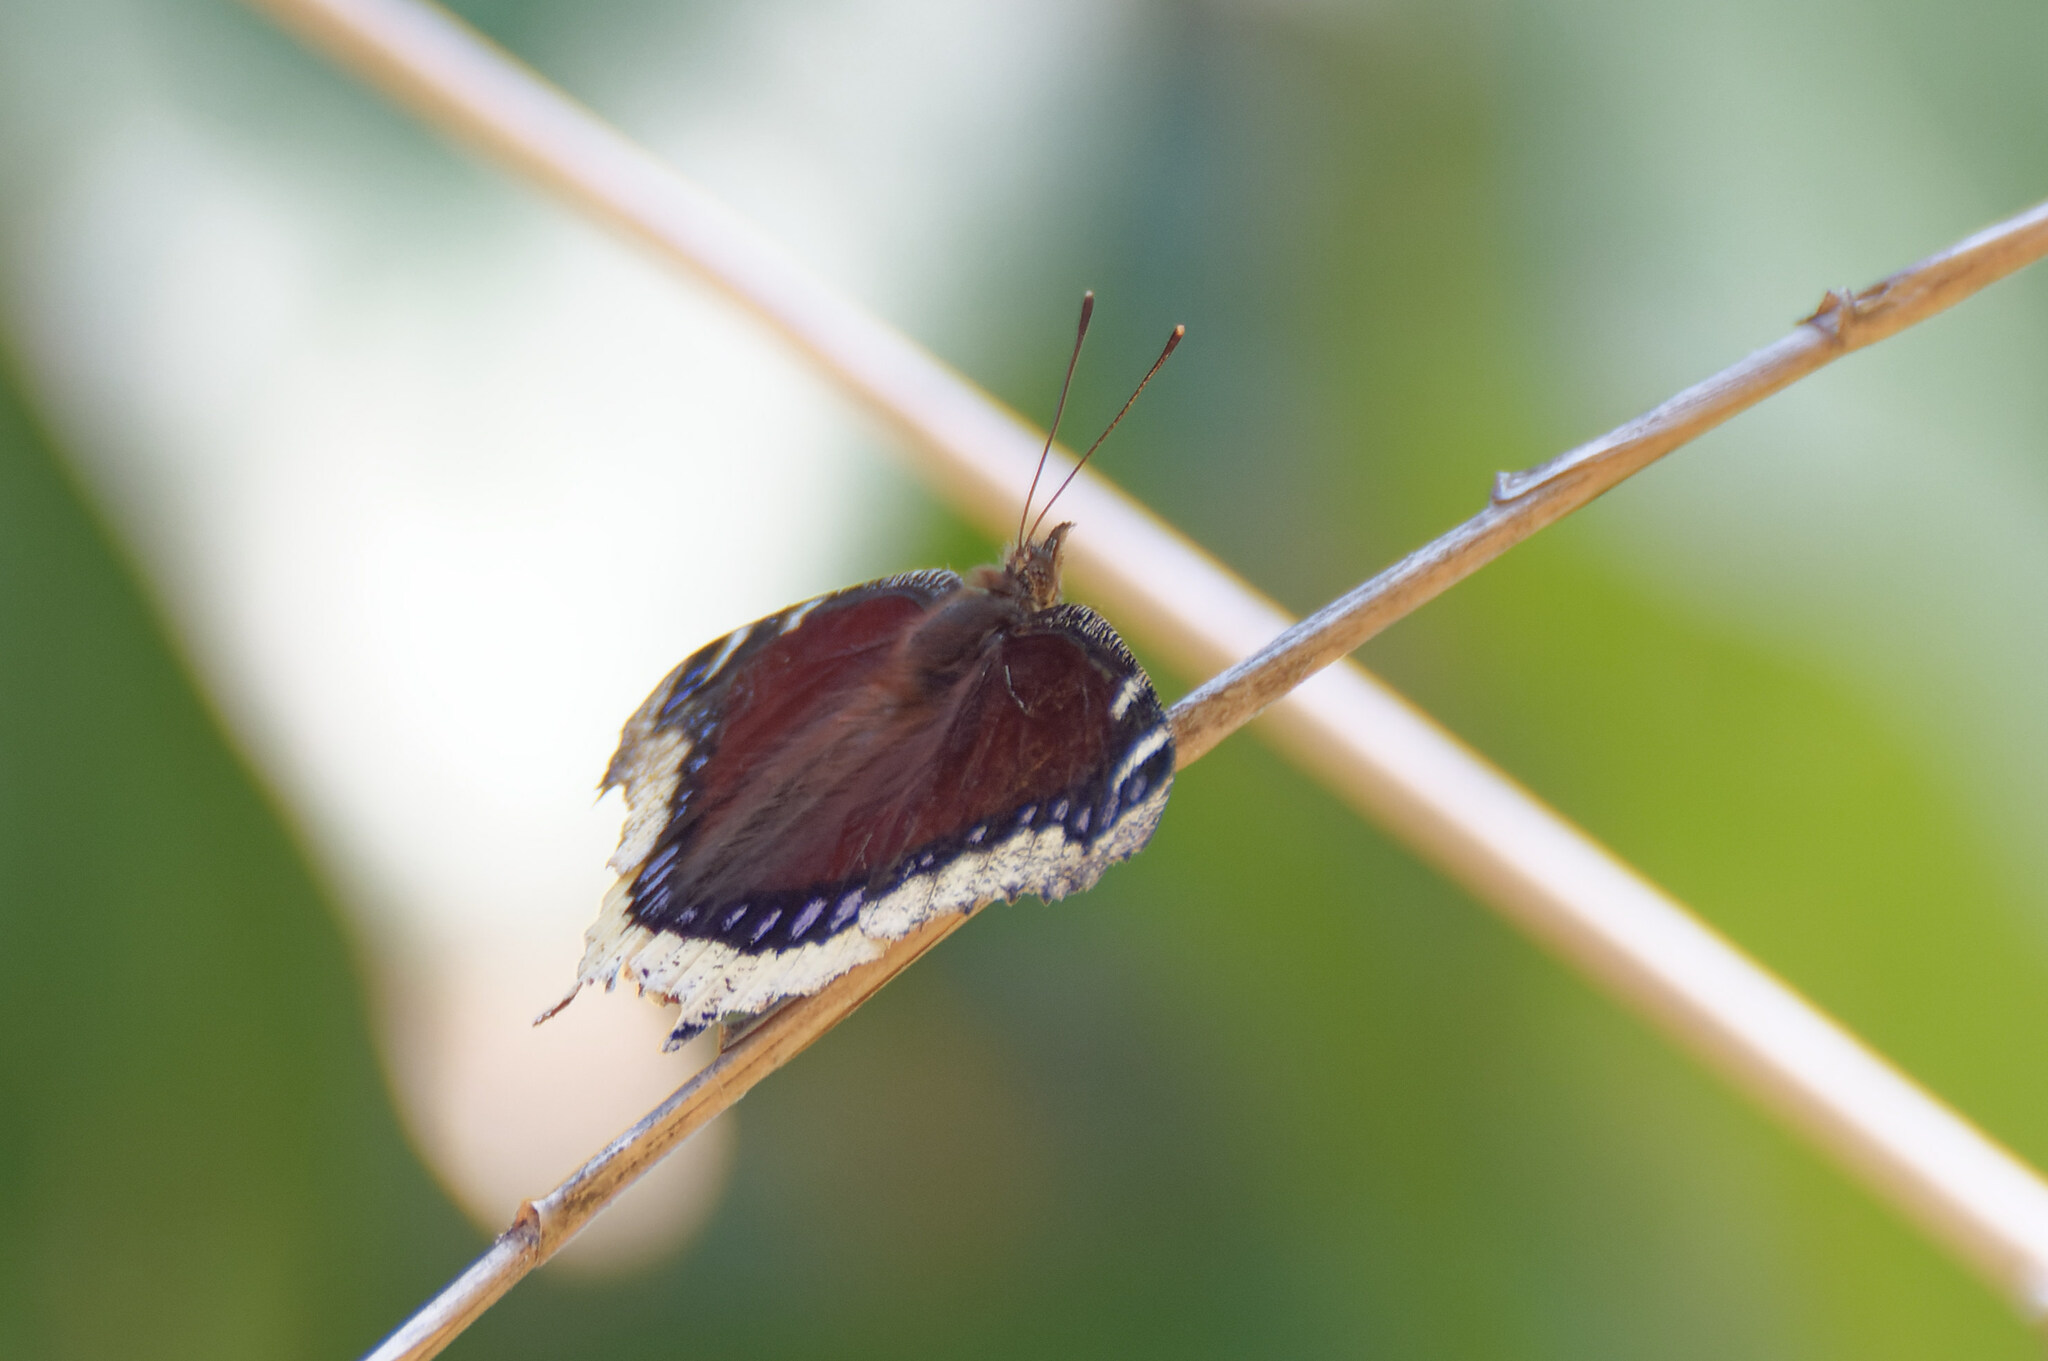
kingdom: Animalia
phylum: Arthropoda
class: Insecta
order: Lepidoptera
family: Nymphalidae
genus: Nymphalis
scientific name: Nymphalis antiopa
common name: Camberwell beauty
